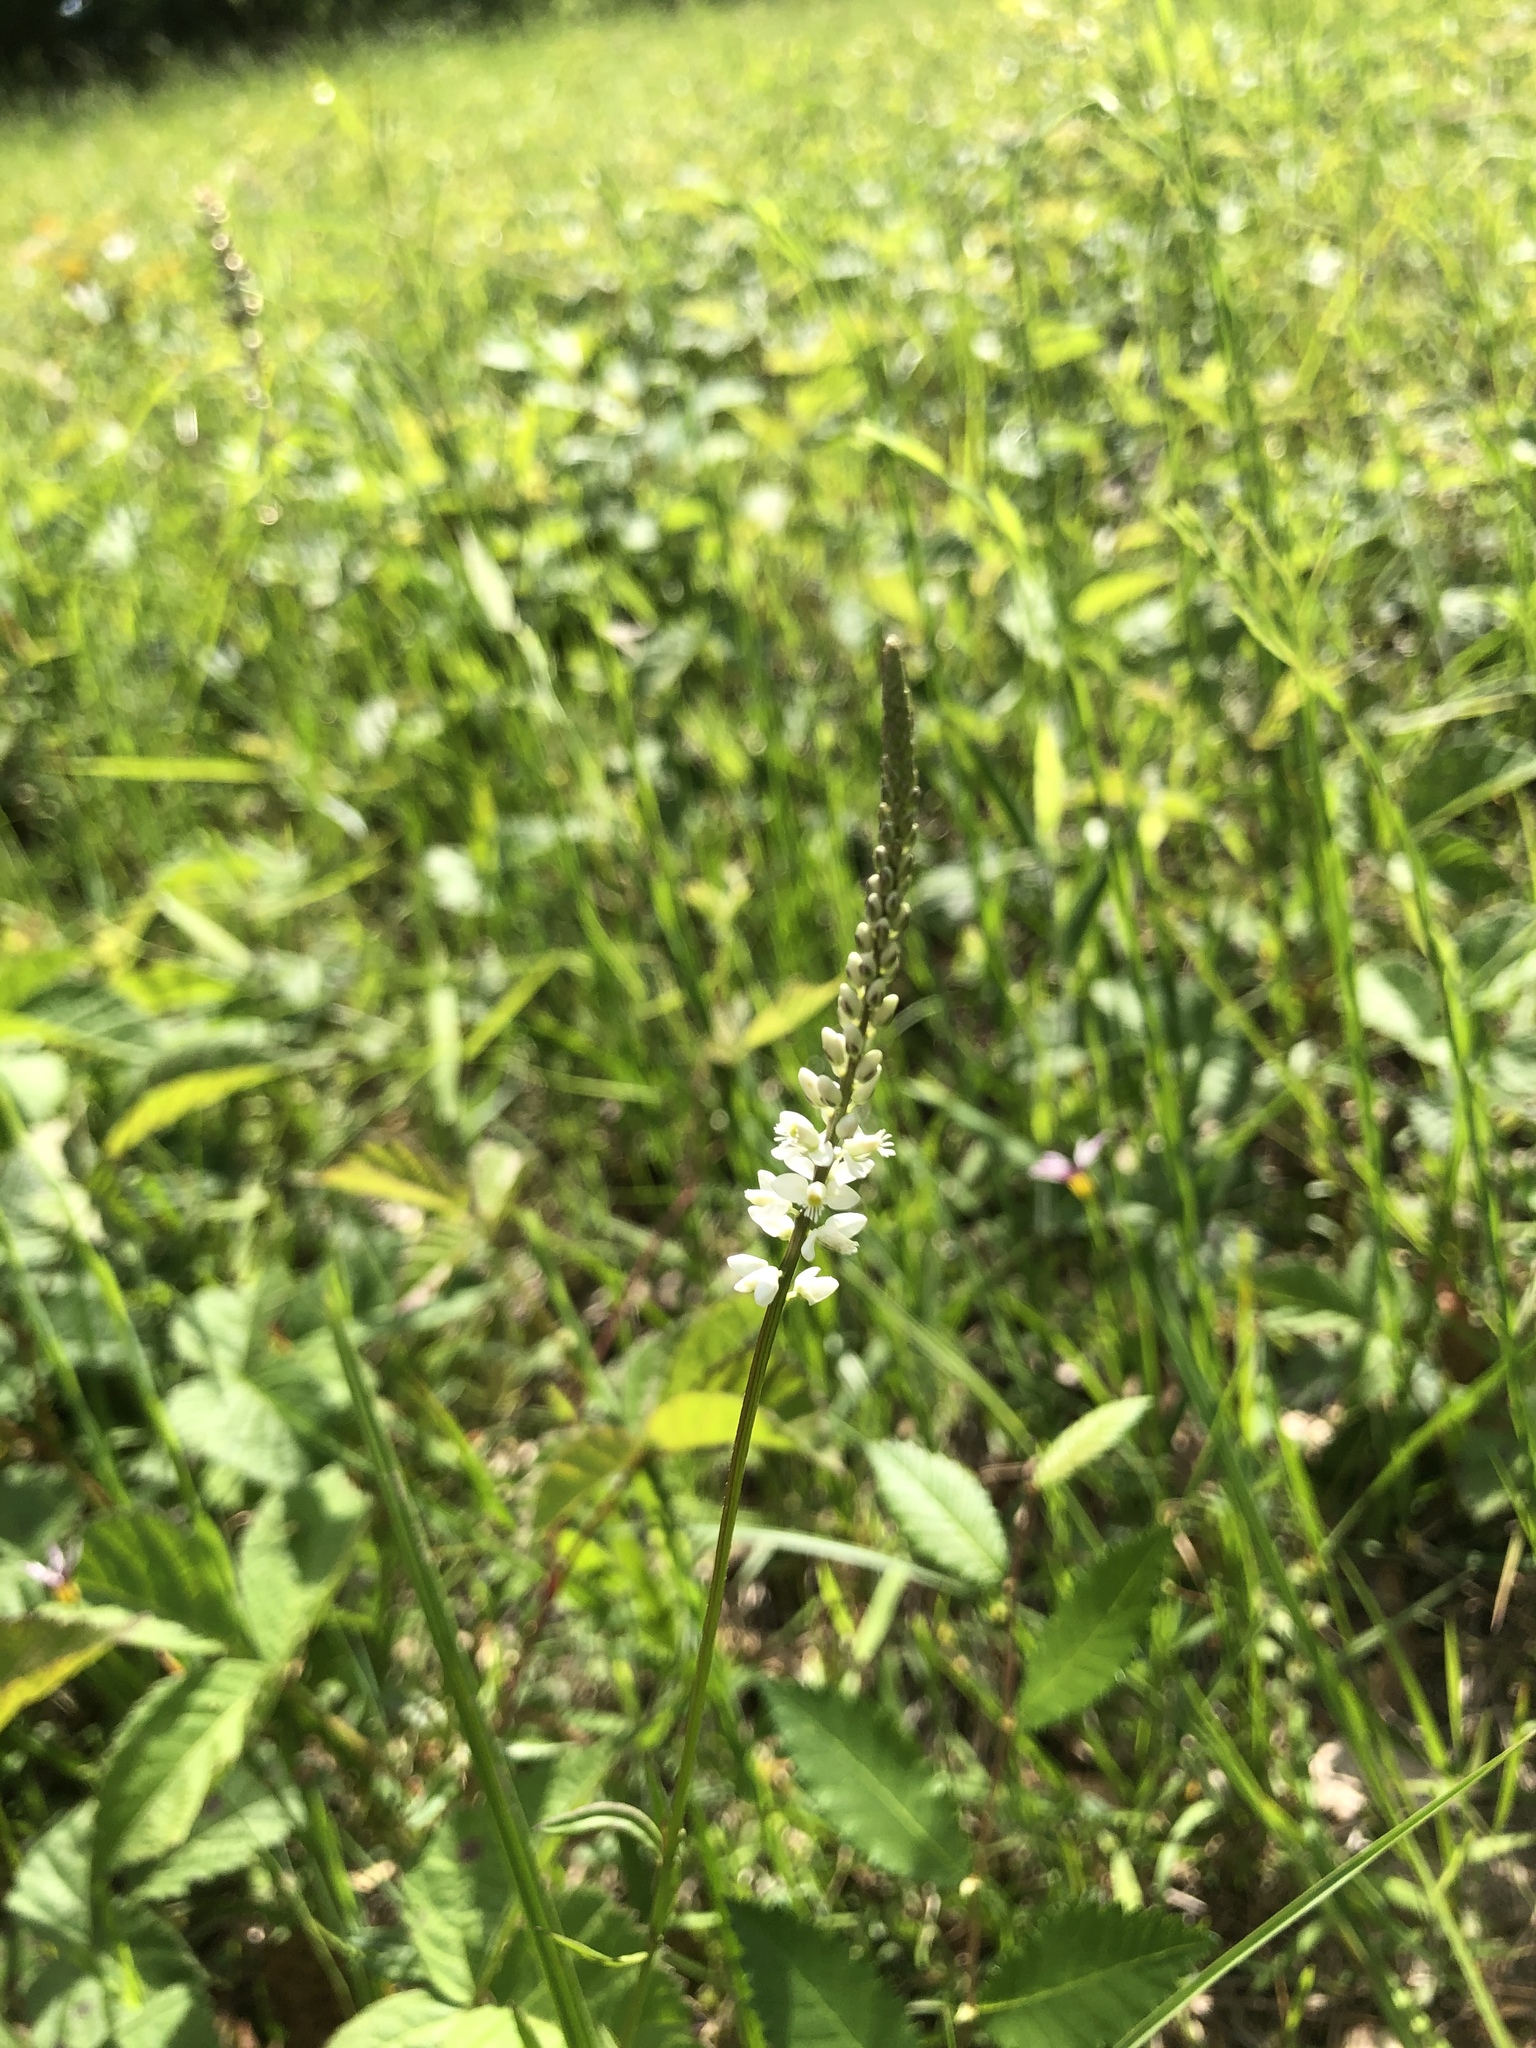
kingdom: Plantae
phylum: Tracheophyta
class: Magnoliopsida
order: Fabales
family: Polygalaceae
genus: Polygala
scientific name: Polygala boykinii
